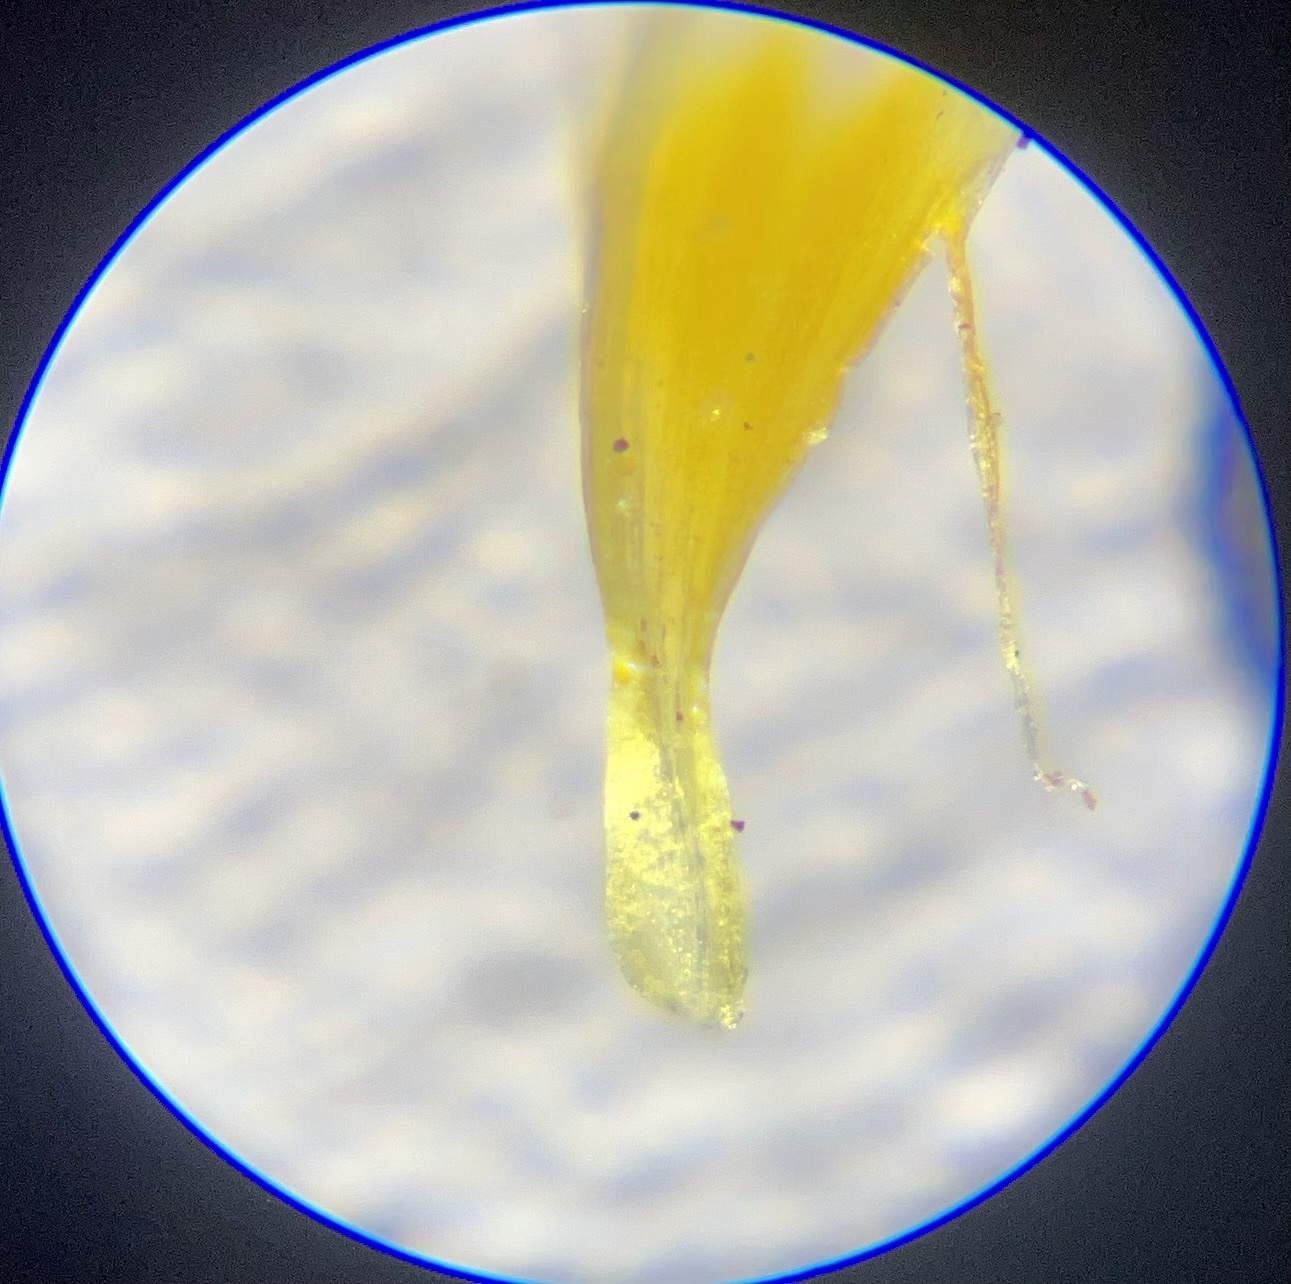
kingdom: Plantae
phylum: Tracheophyta
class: Magnoliopsida
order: Ericales
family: Polemoniaceae
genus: Leptosiphon
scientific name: Leptosiphon filipes
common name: Thread linanthus
